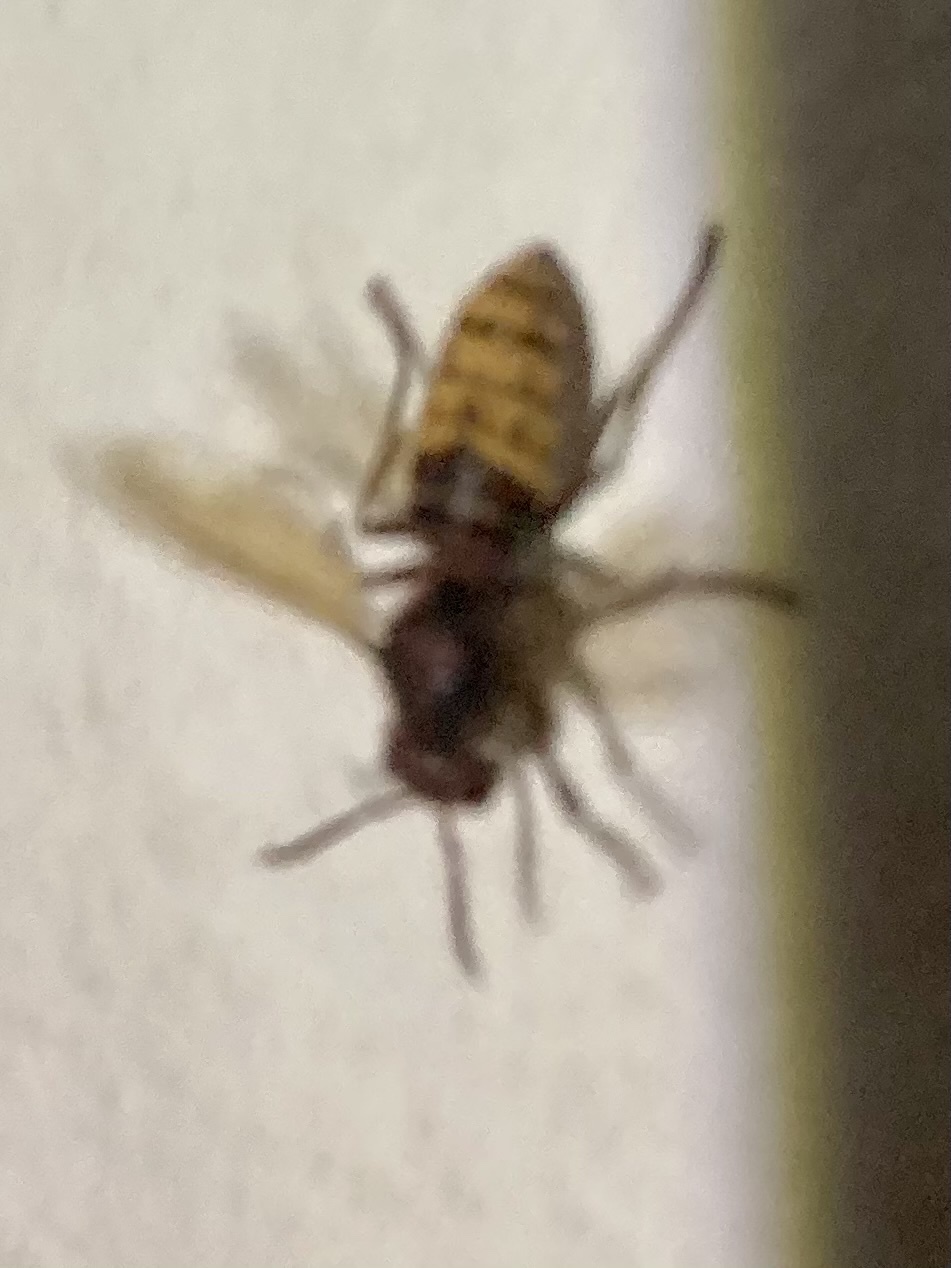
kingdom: Animalia
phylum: Arthropoda
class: Insecta
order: Hymenoptera
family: Vespidae
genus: Vespa
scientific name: Vespa crabro
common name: Hornet
